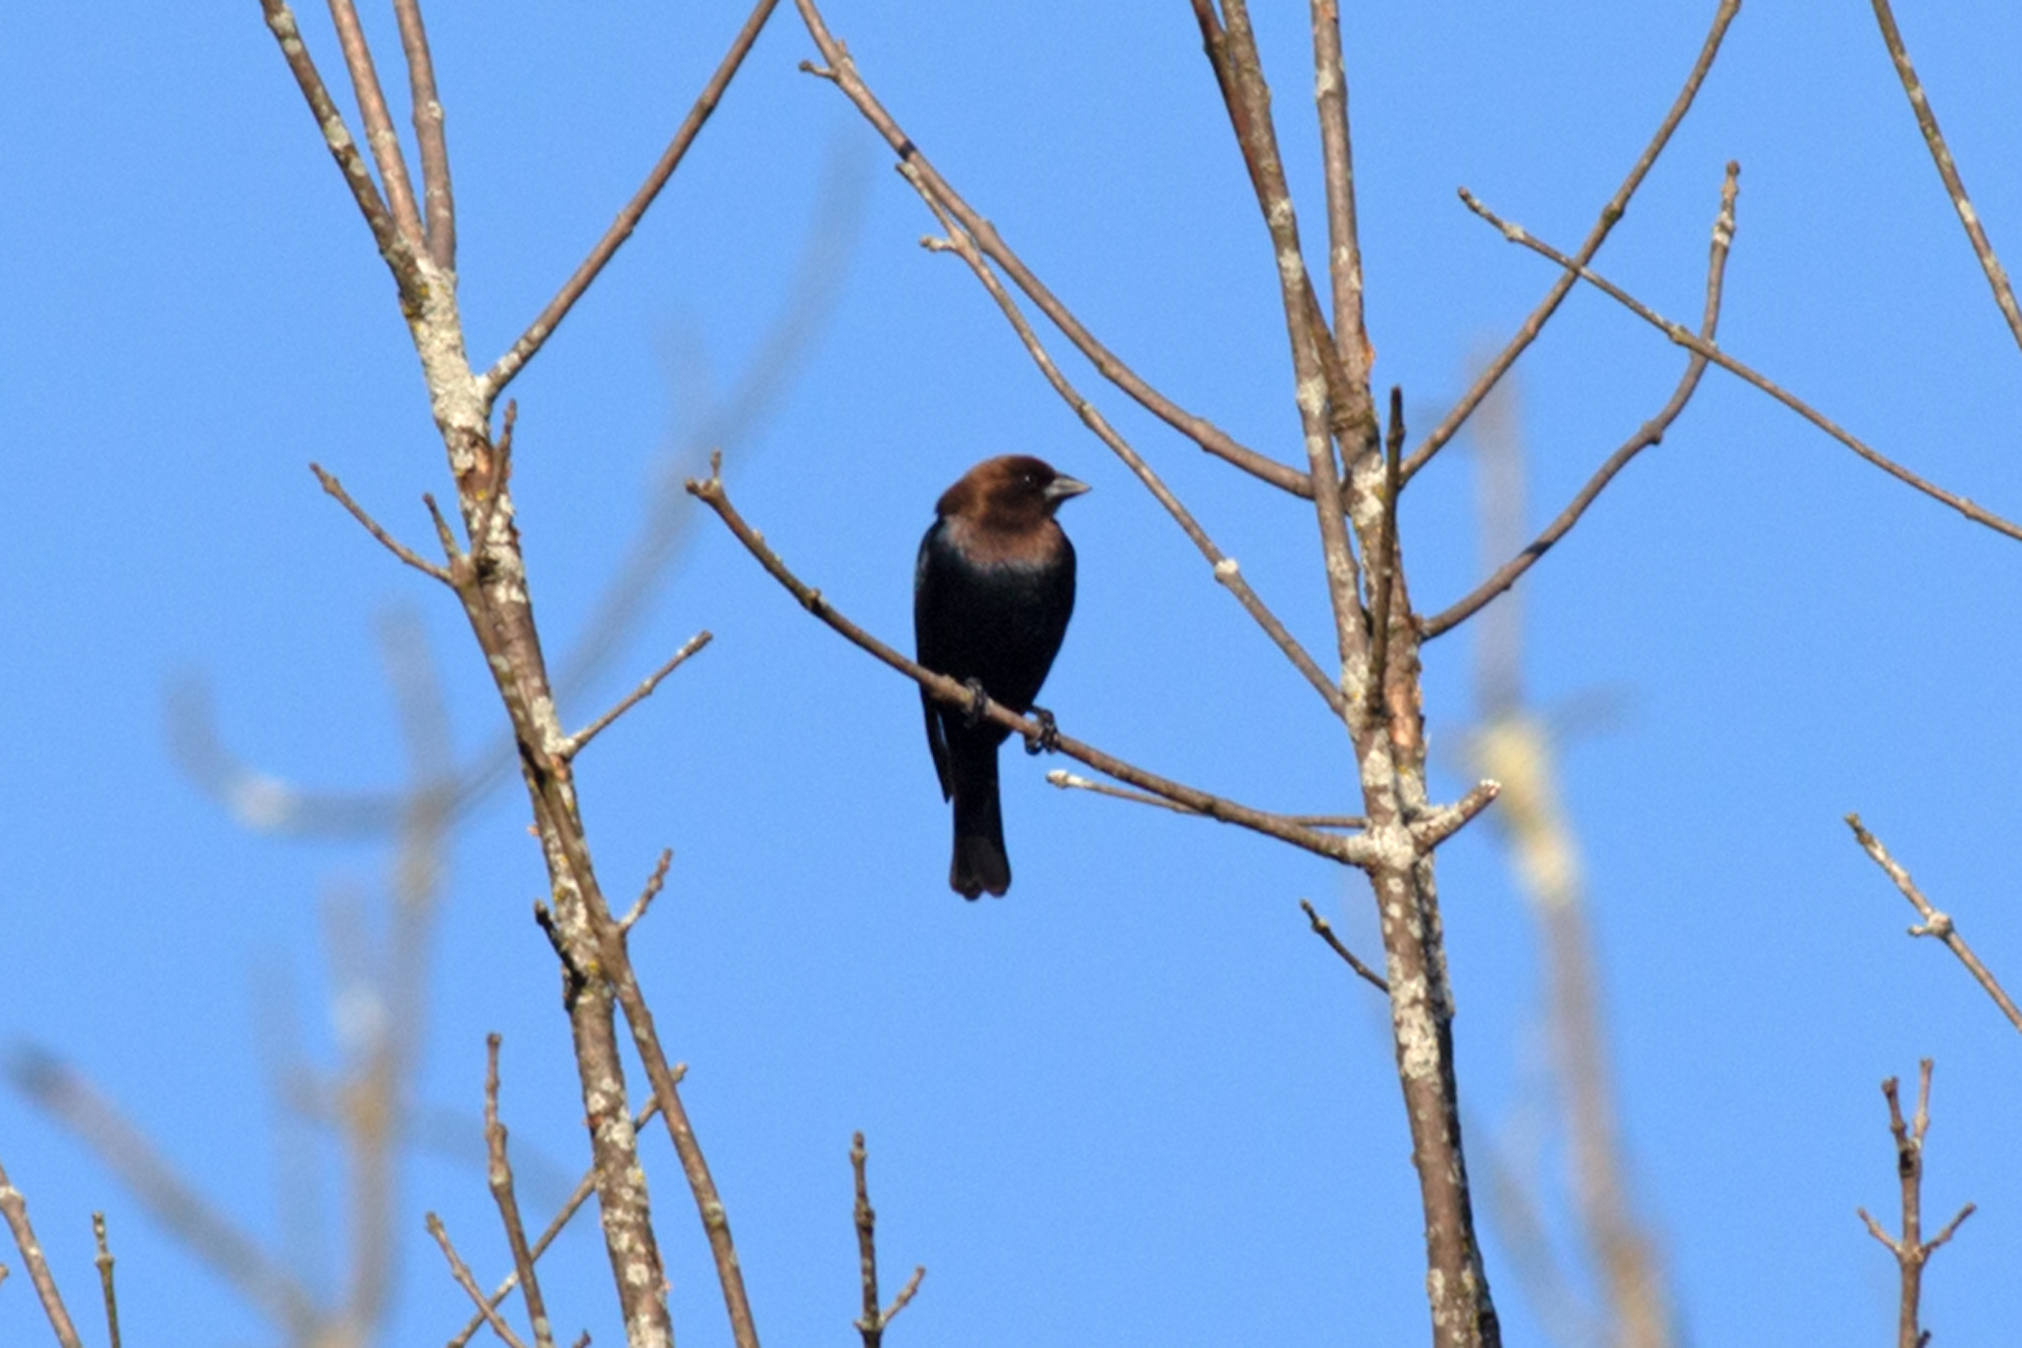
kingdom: Animalia
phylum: Chordata
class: Aves
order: Passeriformes
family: Icteridae
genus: Molothrus
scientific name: Molothrus ater
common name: Brown-headed cowbird
